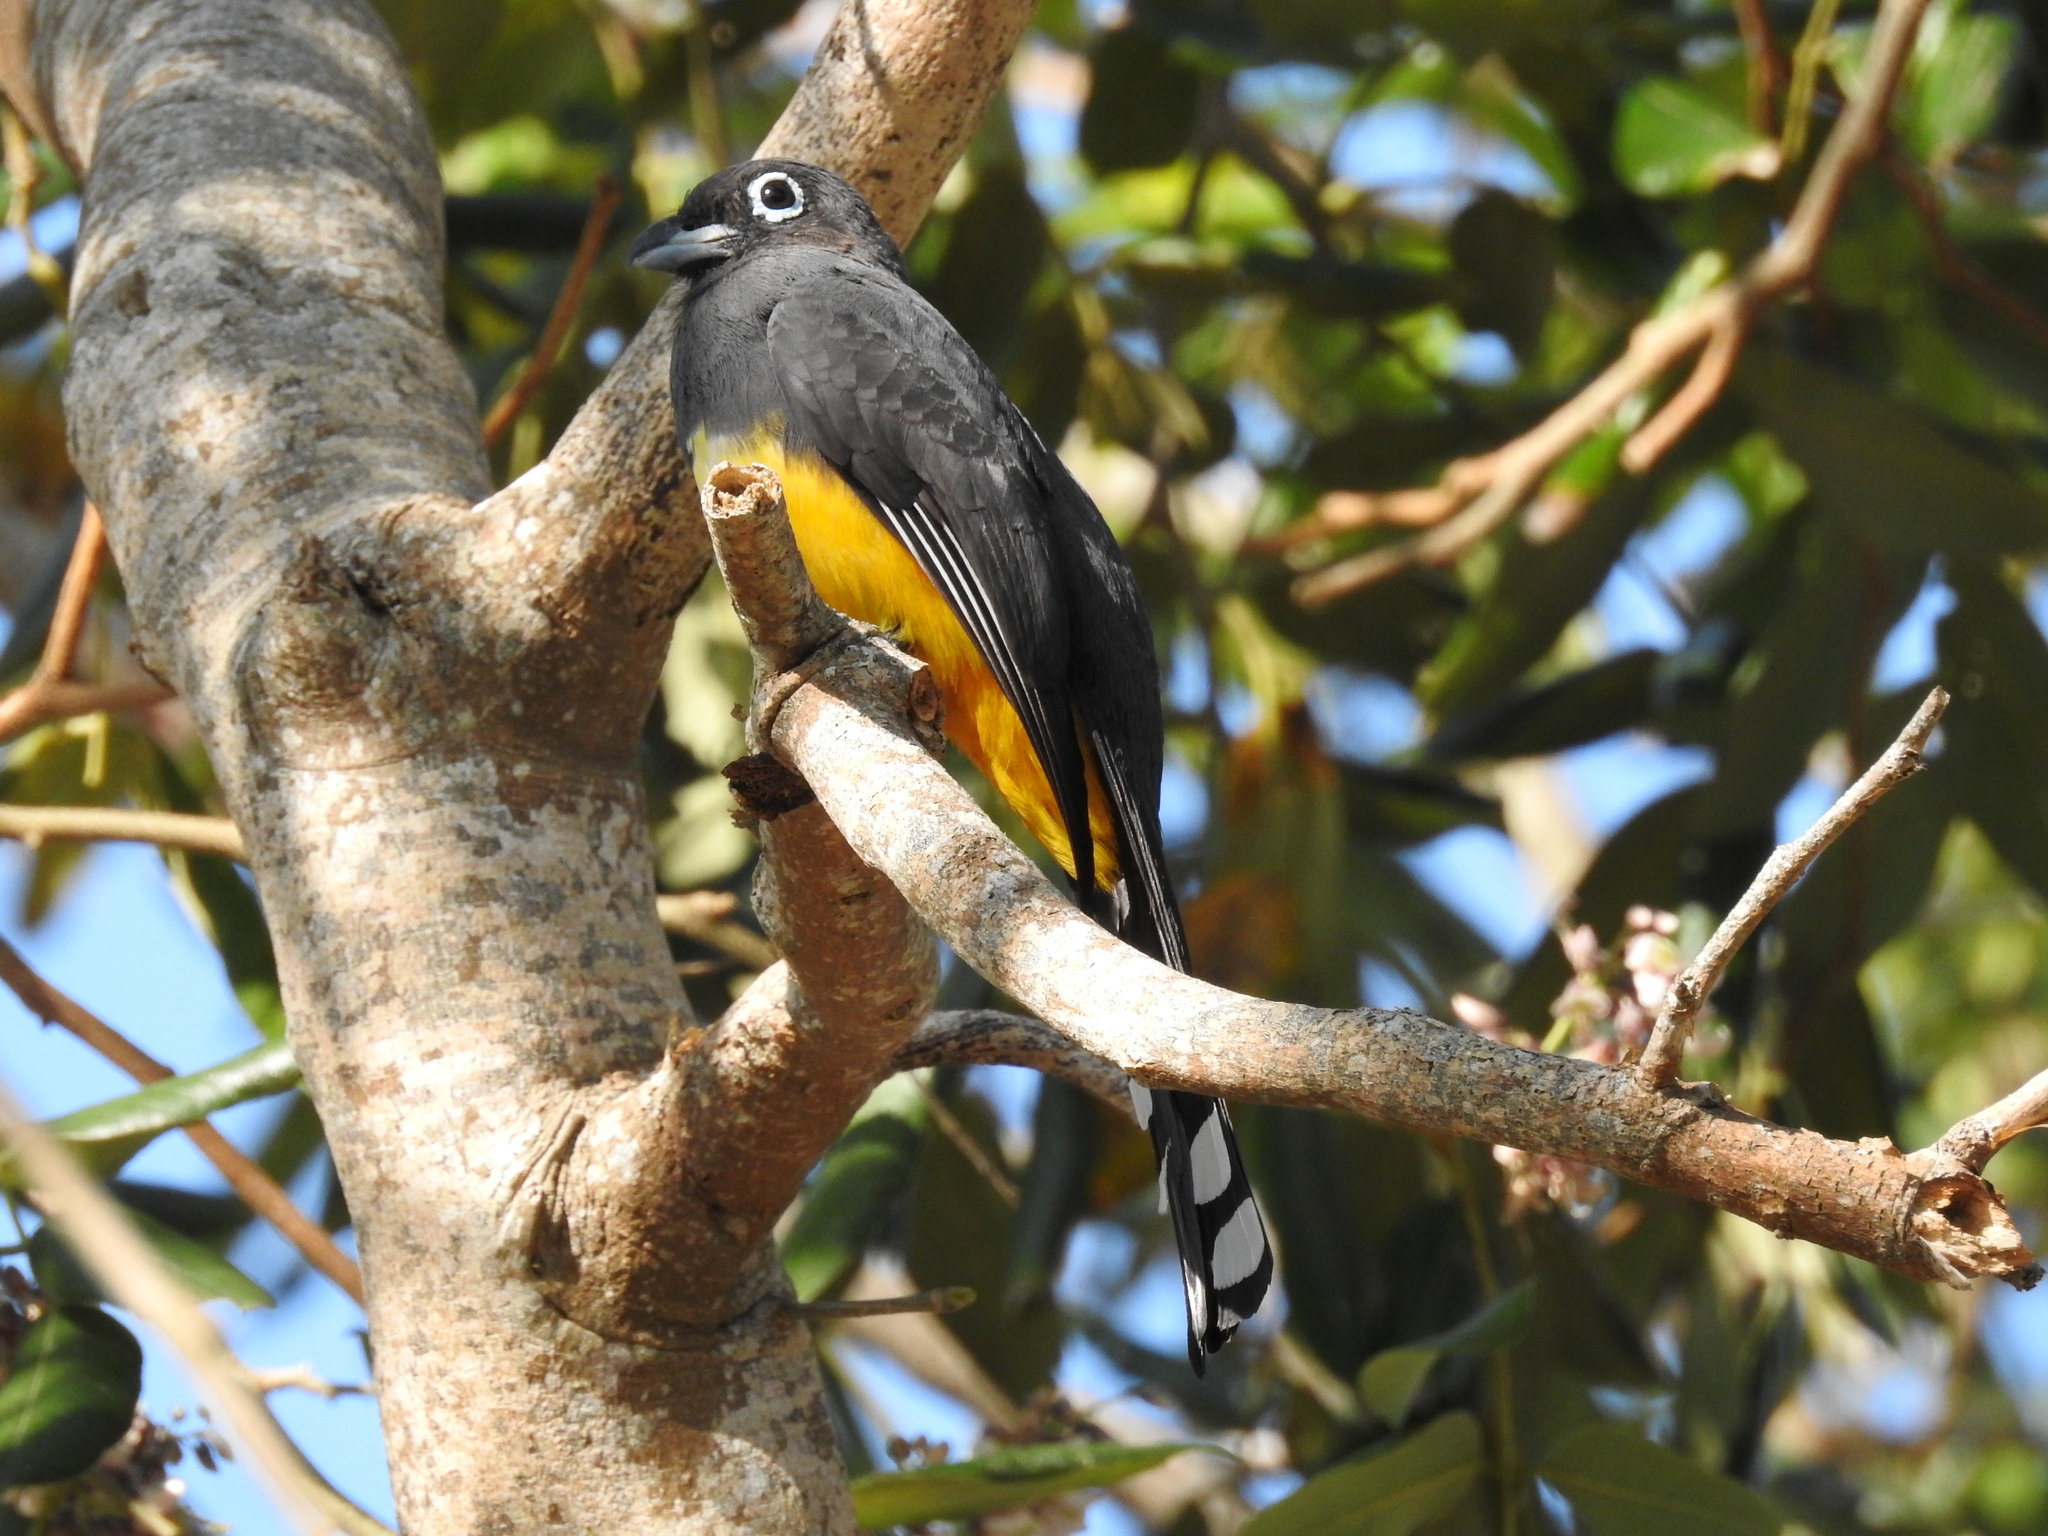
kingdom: Animalia
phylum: Chordata
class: Aves
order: Trogoniformes
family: Trogonidae
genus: Trogon
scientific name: Trogon melanocephalus
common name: Black-headed trogon
